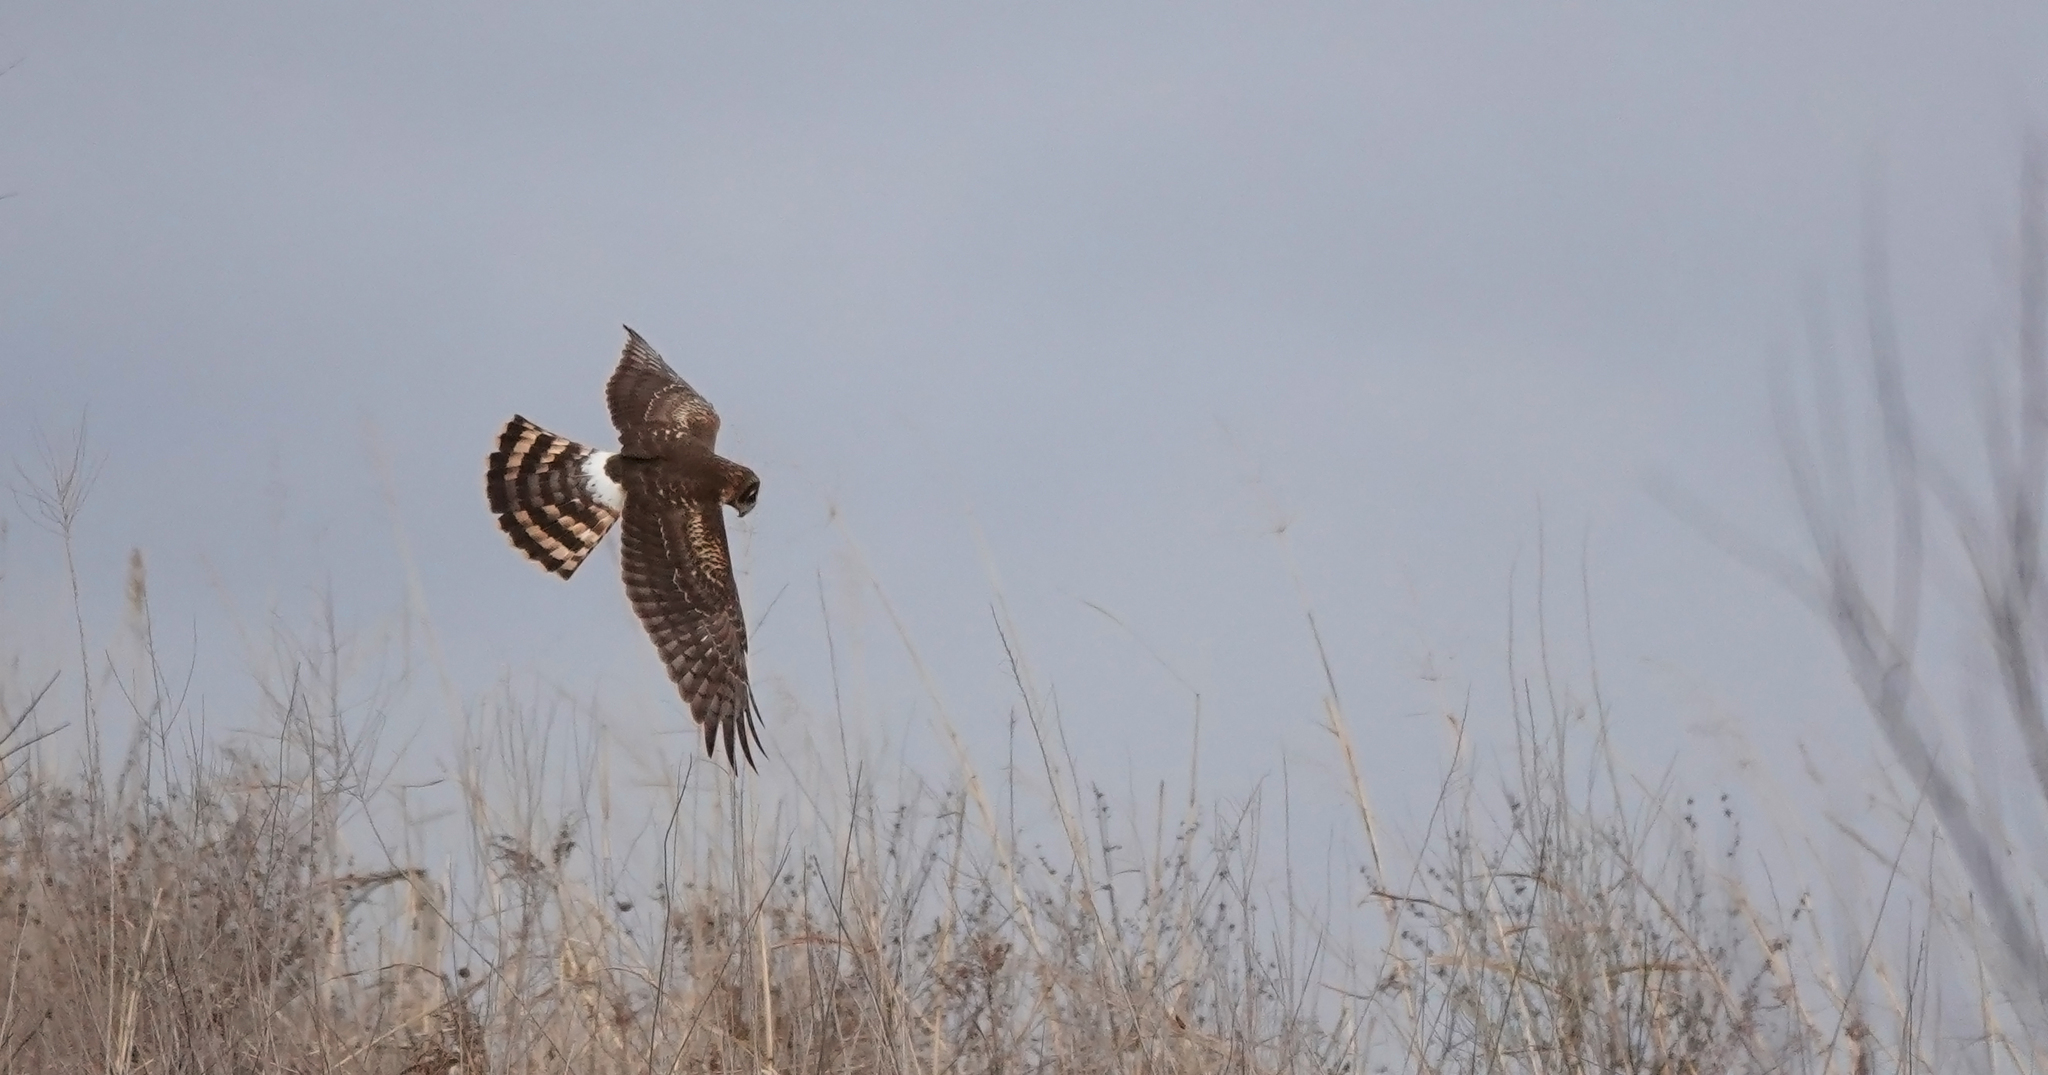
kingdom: Animalia
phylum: Chordata
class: Aves
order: Accipitriformes
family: Accipitridae
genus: Circus
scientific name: Circus cyaneus
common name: Hen harrier
